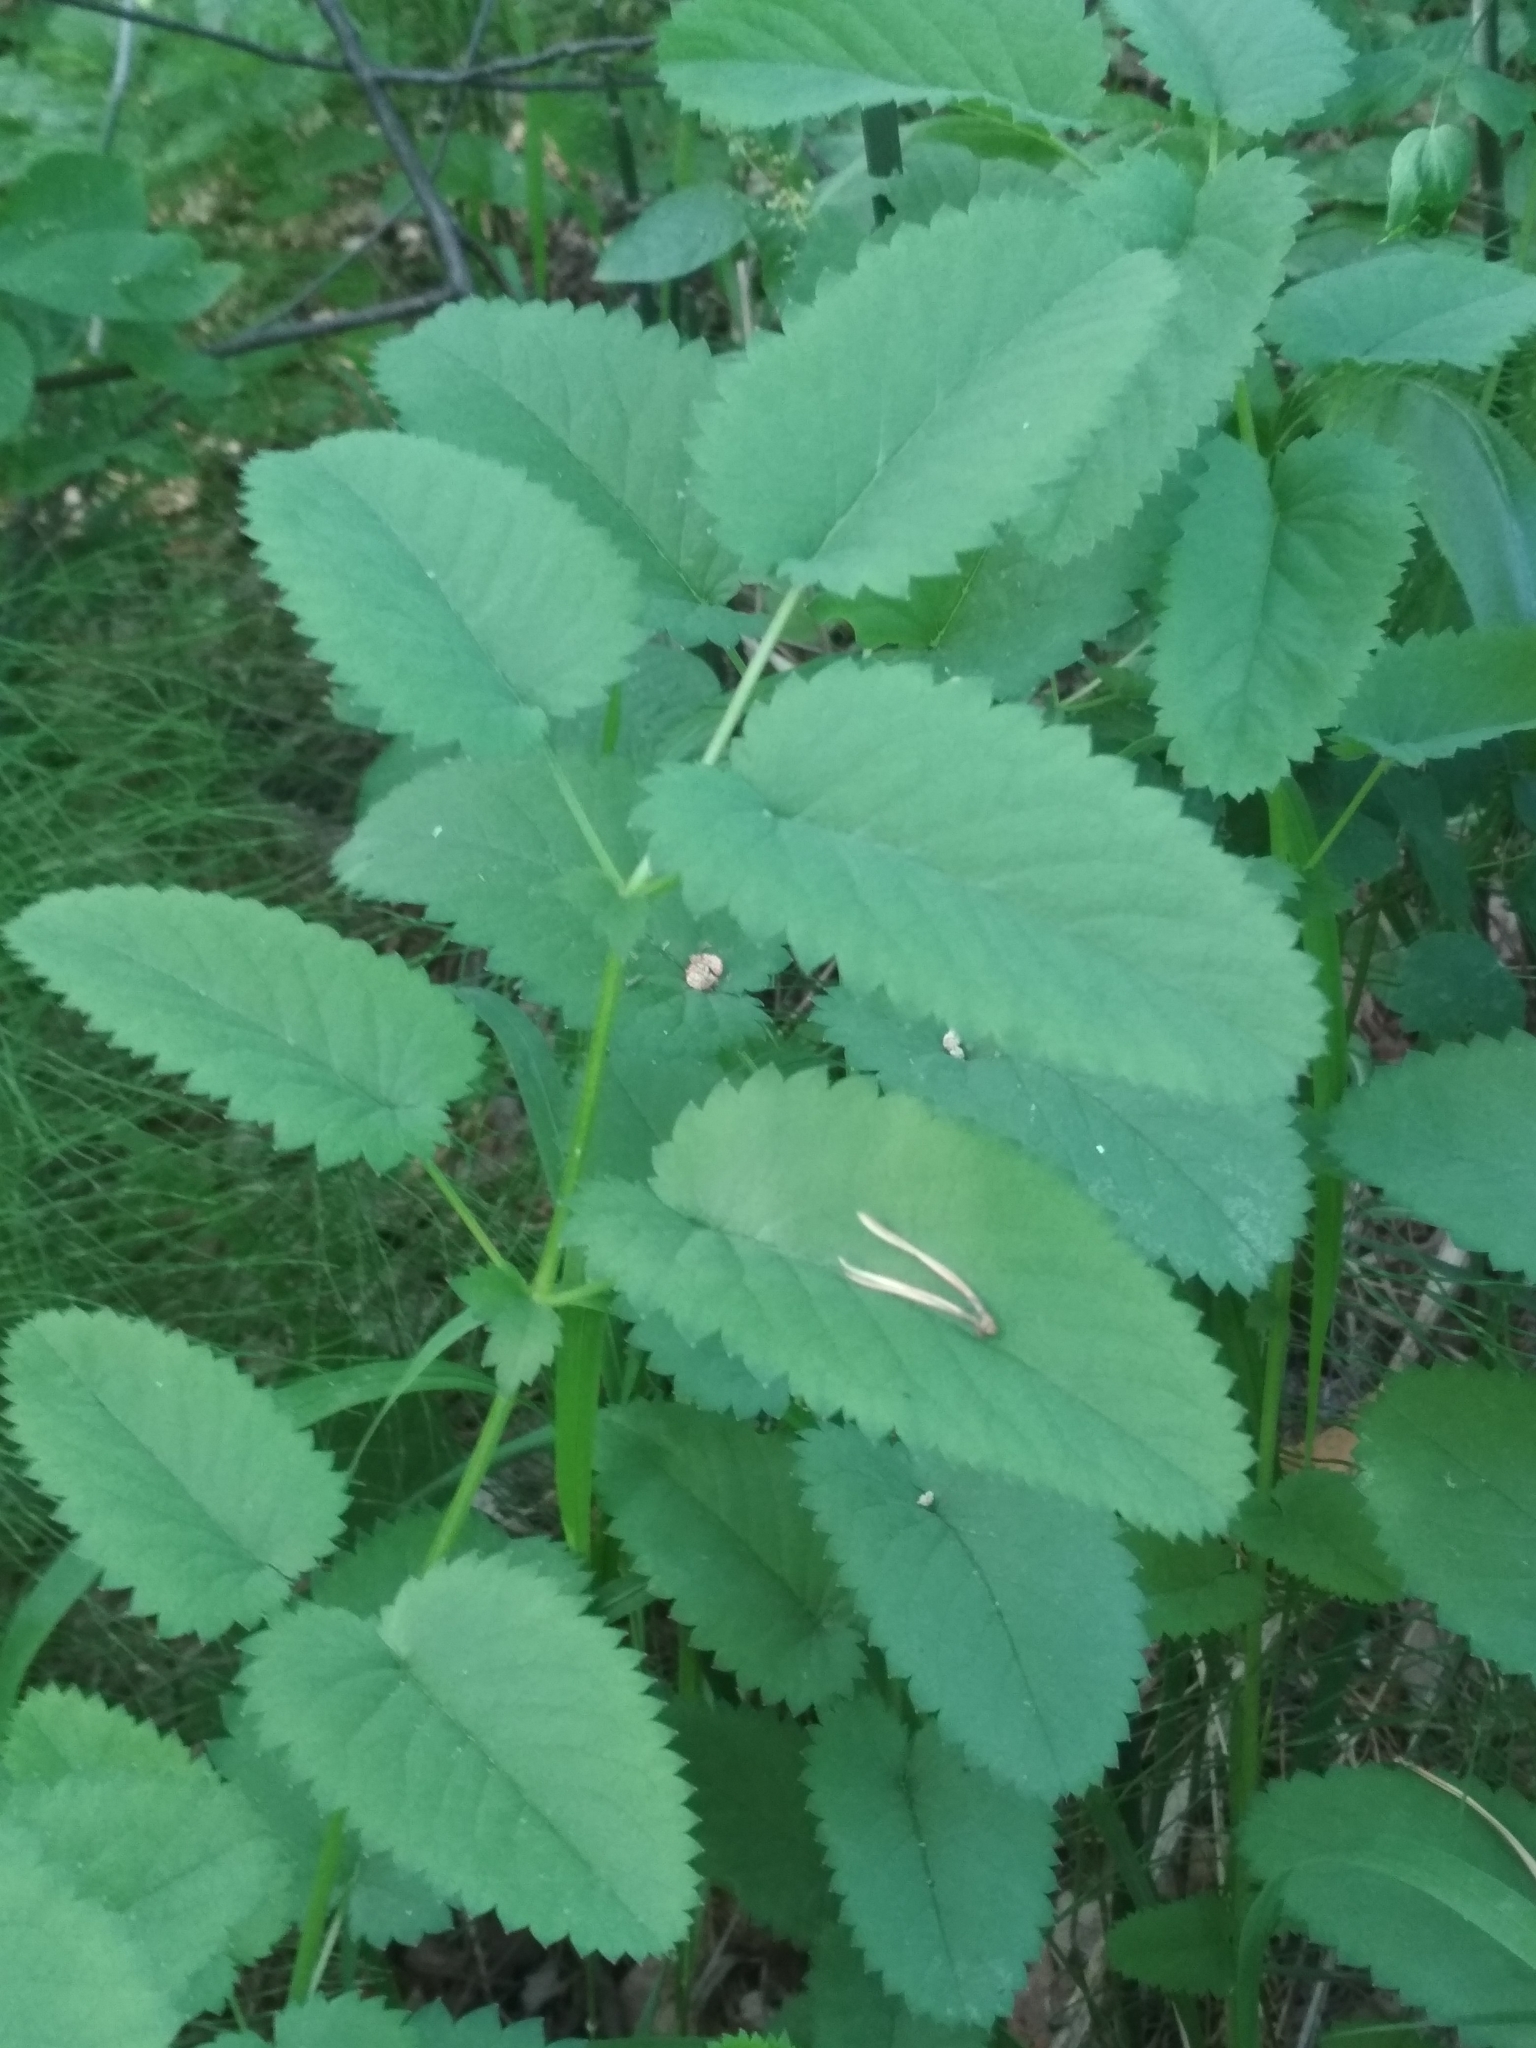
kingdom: Plantae
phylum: Tracheophyta
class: Magnoliopsida
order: Rosales
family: Rosaceae
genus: Sanguisorba
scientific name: Sanguisorba officinalis
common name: Great burnet
